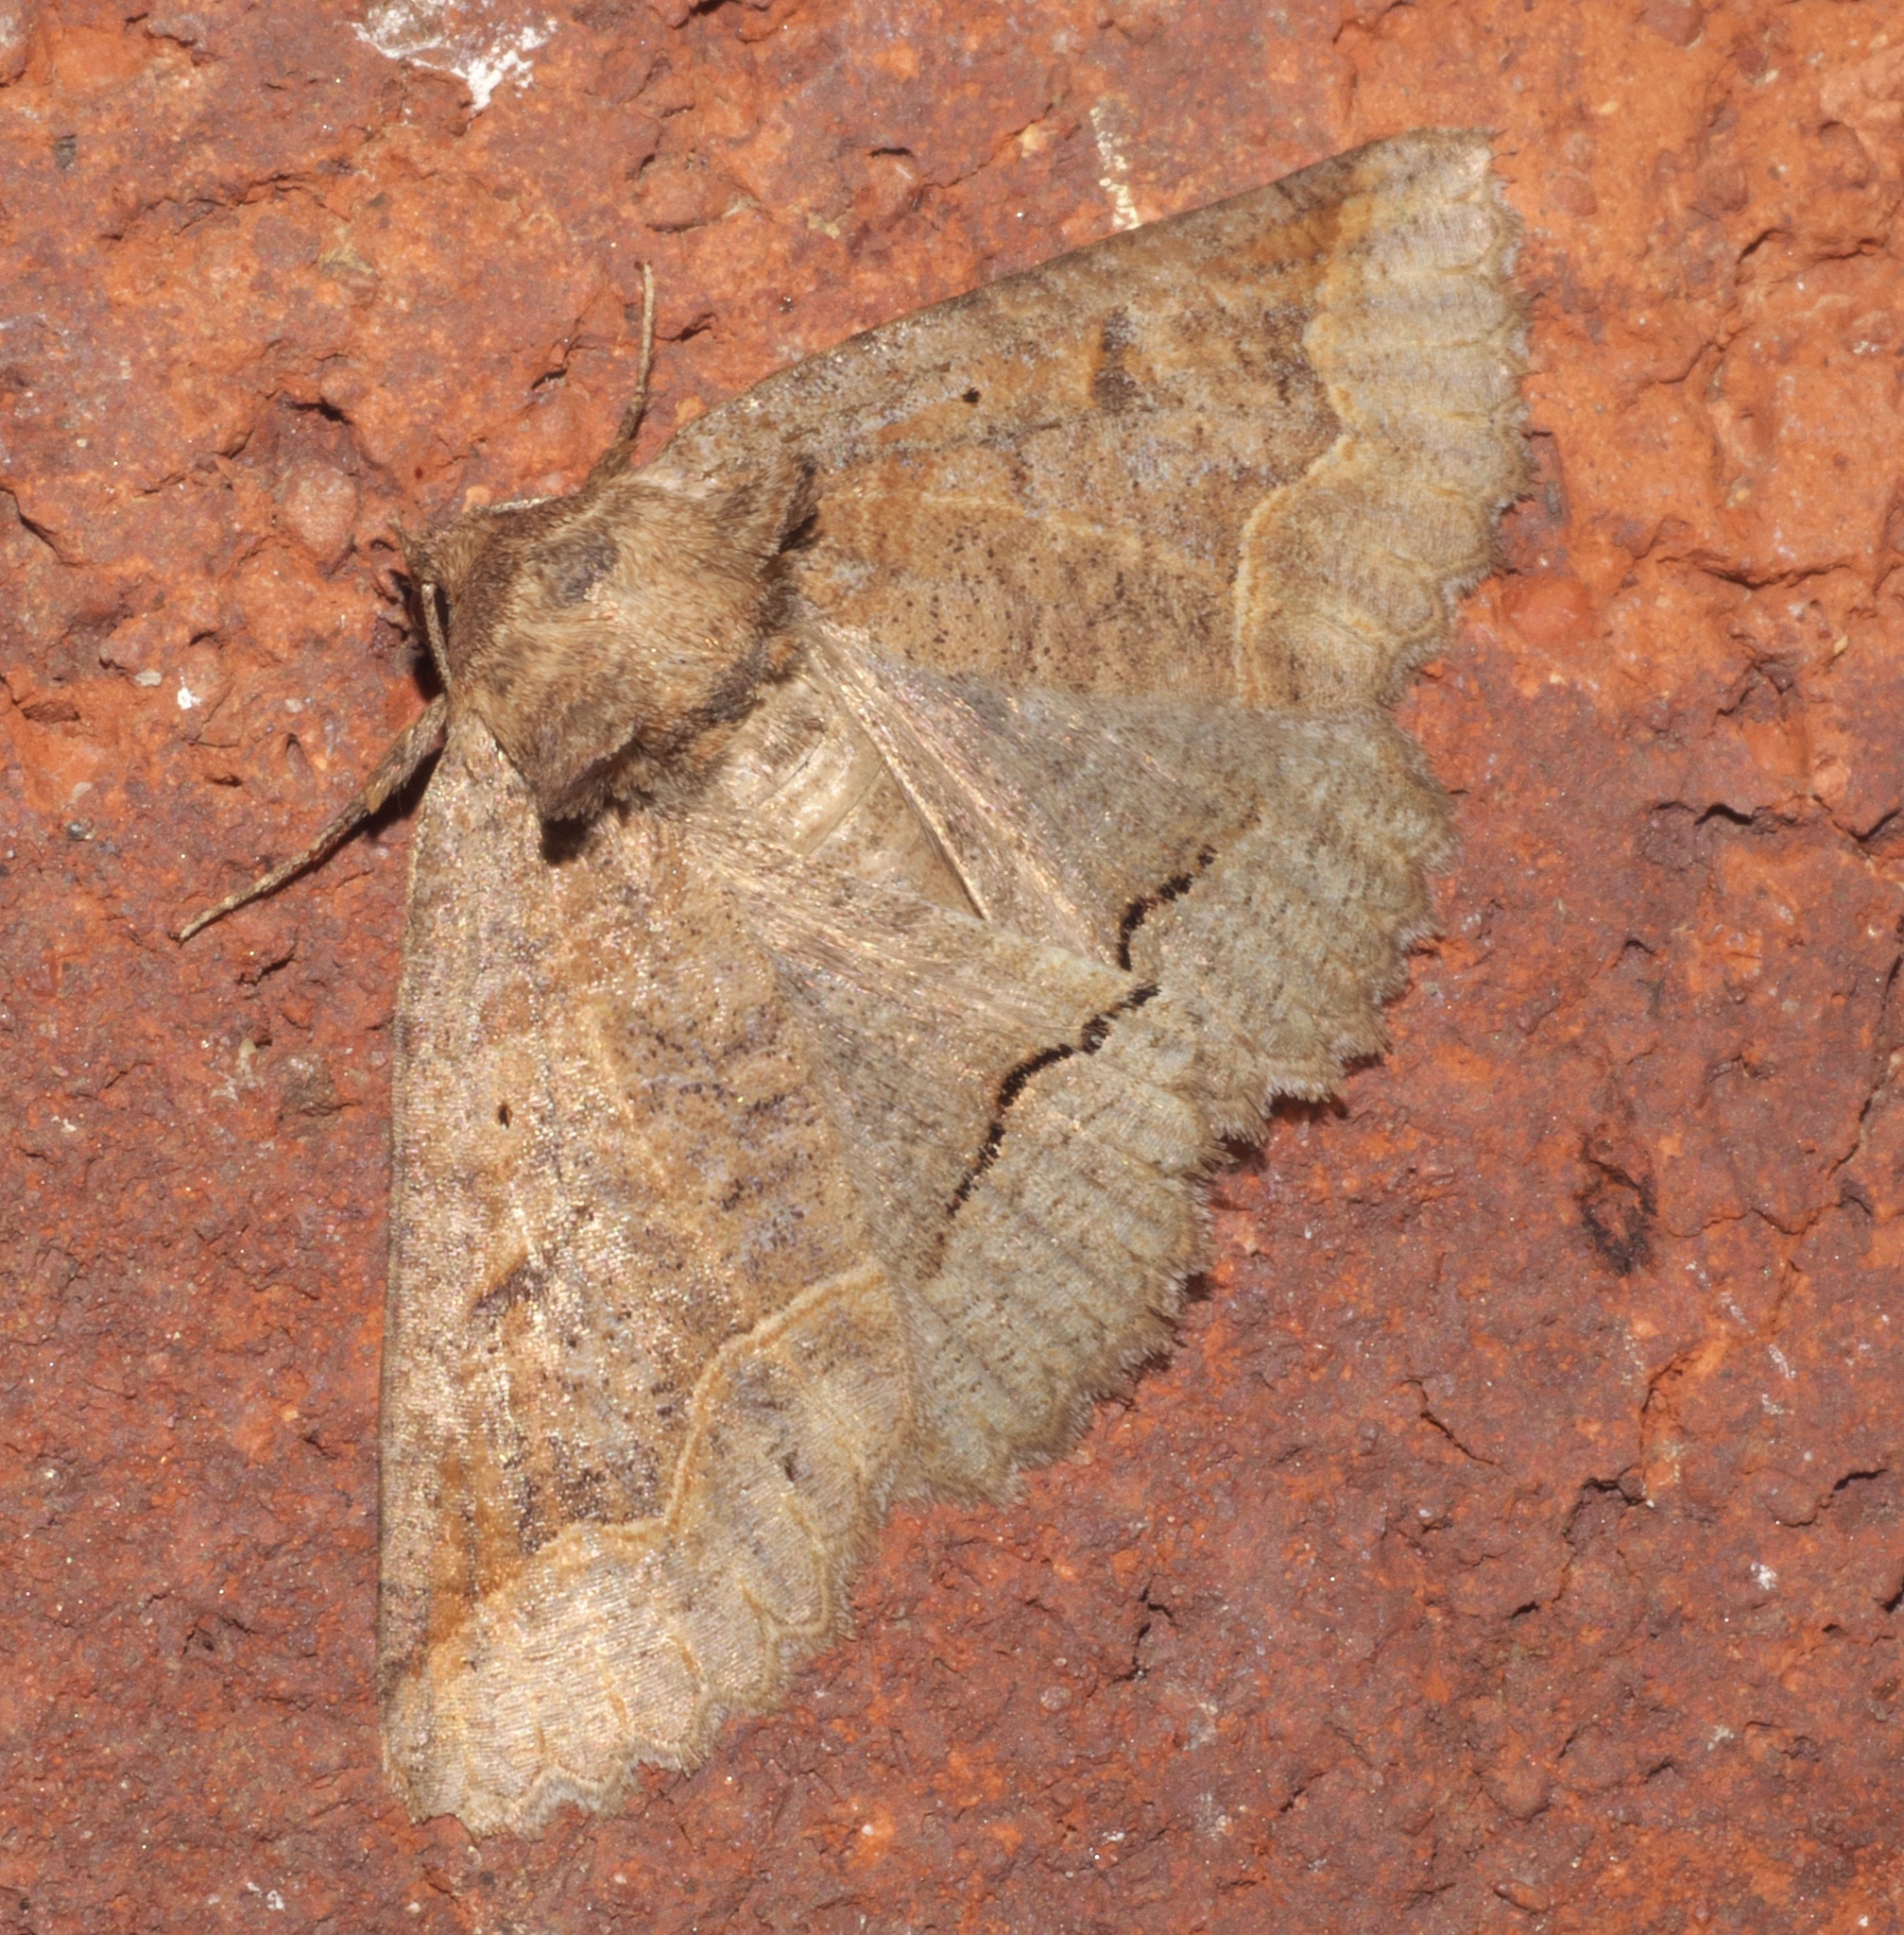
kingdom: Animalia
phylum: Arthropoda
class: Insecta
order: Lepidoptera
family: Erebidae
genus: Zale
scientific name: Zale unilineata
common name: One-lined zale moth
